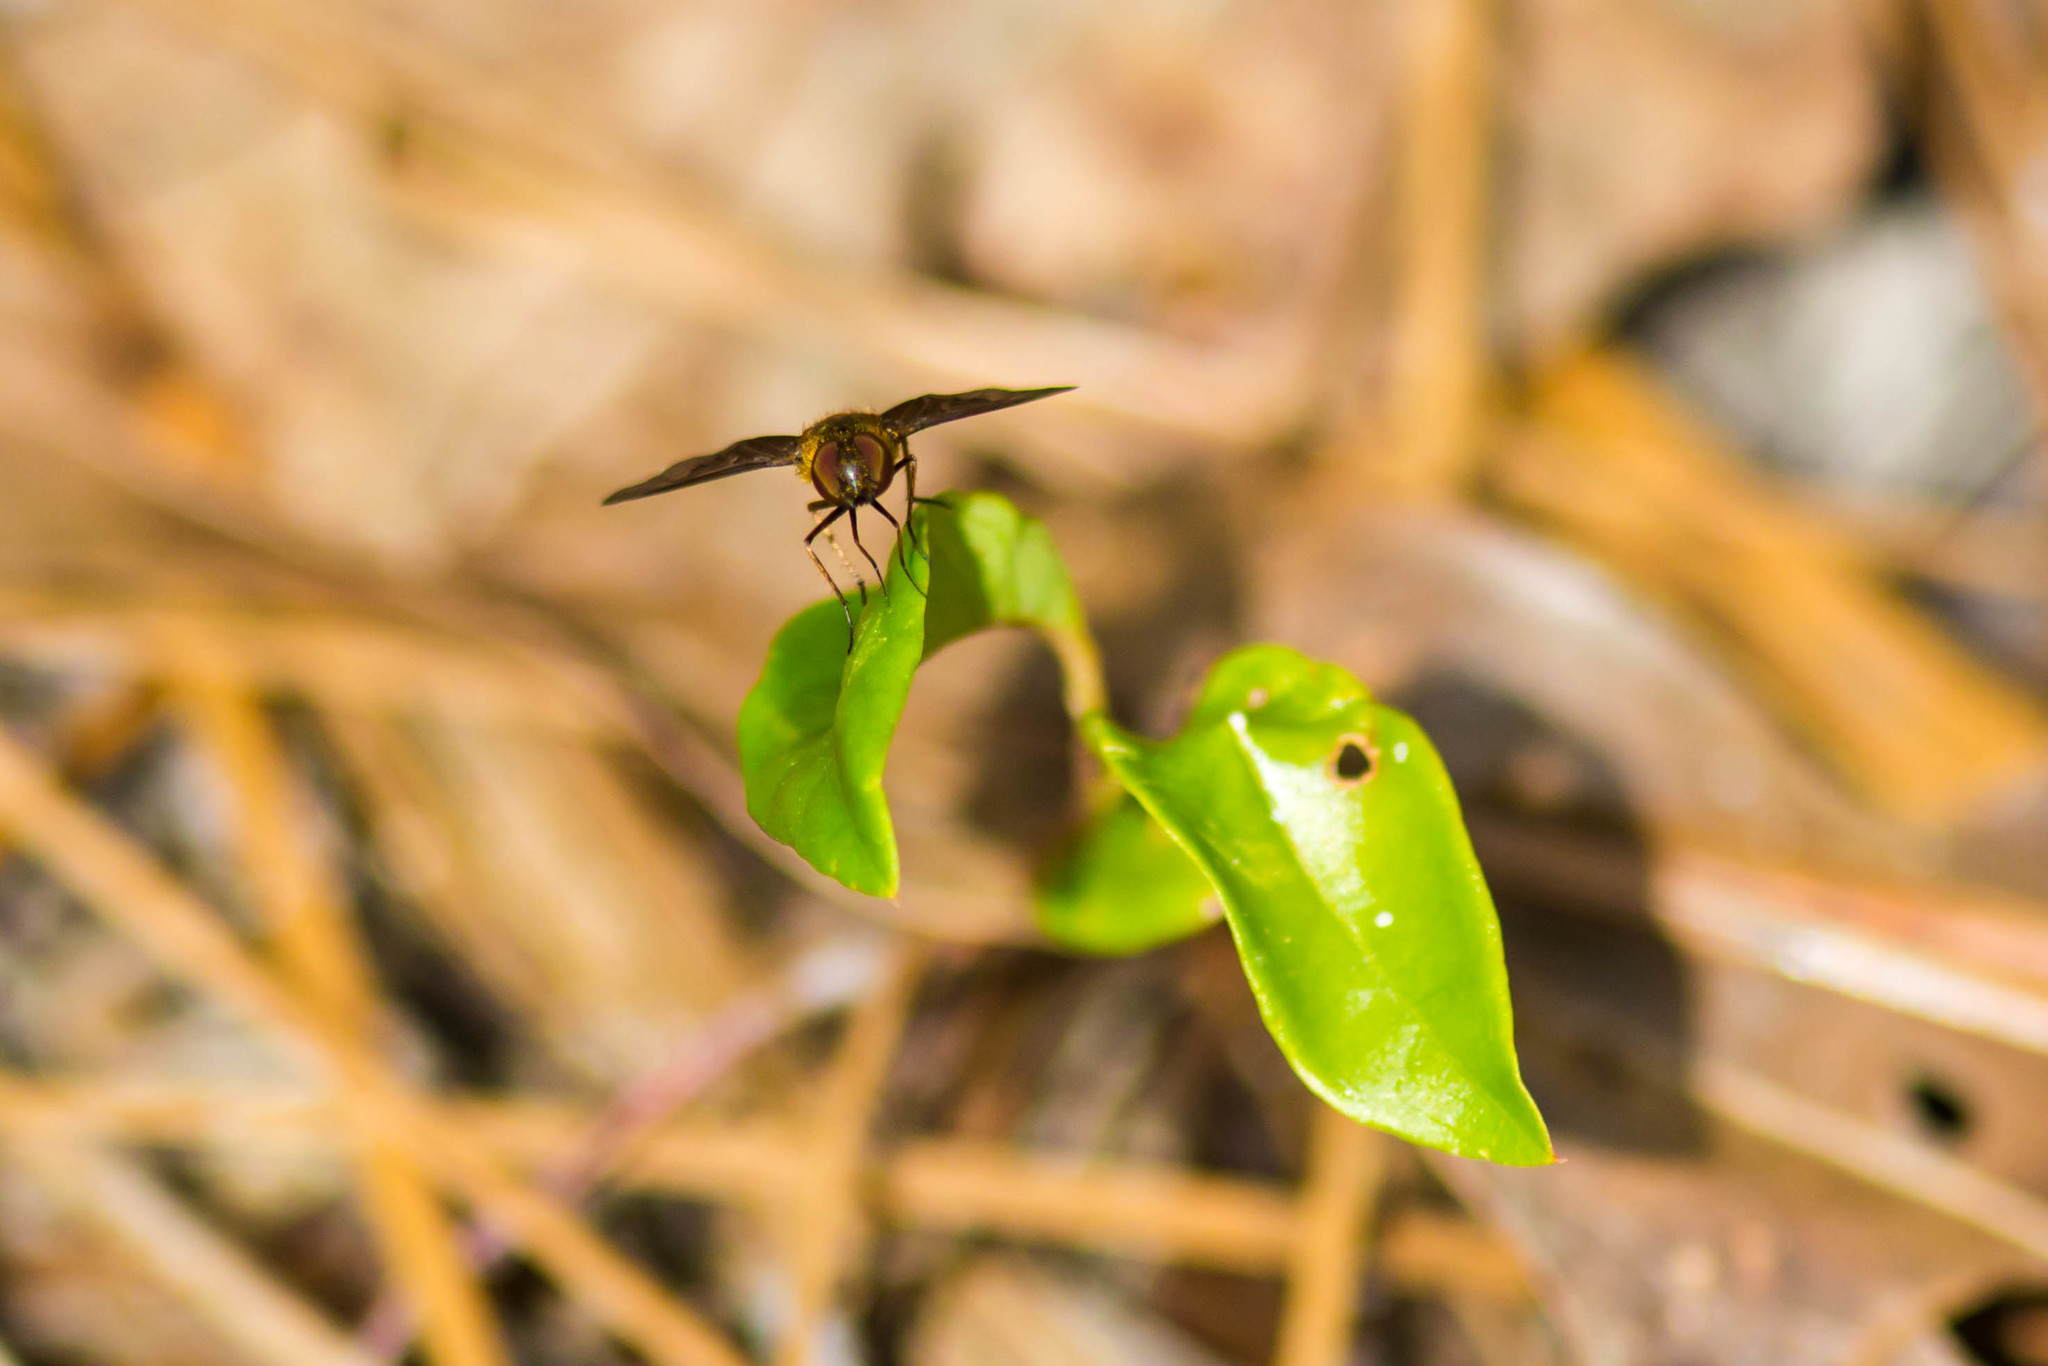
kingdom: Animalia
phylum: Arthropoda
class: Insecta
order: Diptera
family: Bombyliidae
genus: Chrysanthrax
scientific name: Chrysanthrax cypris
